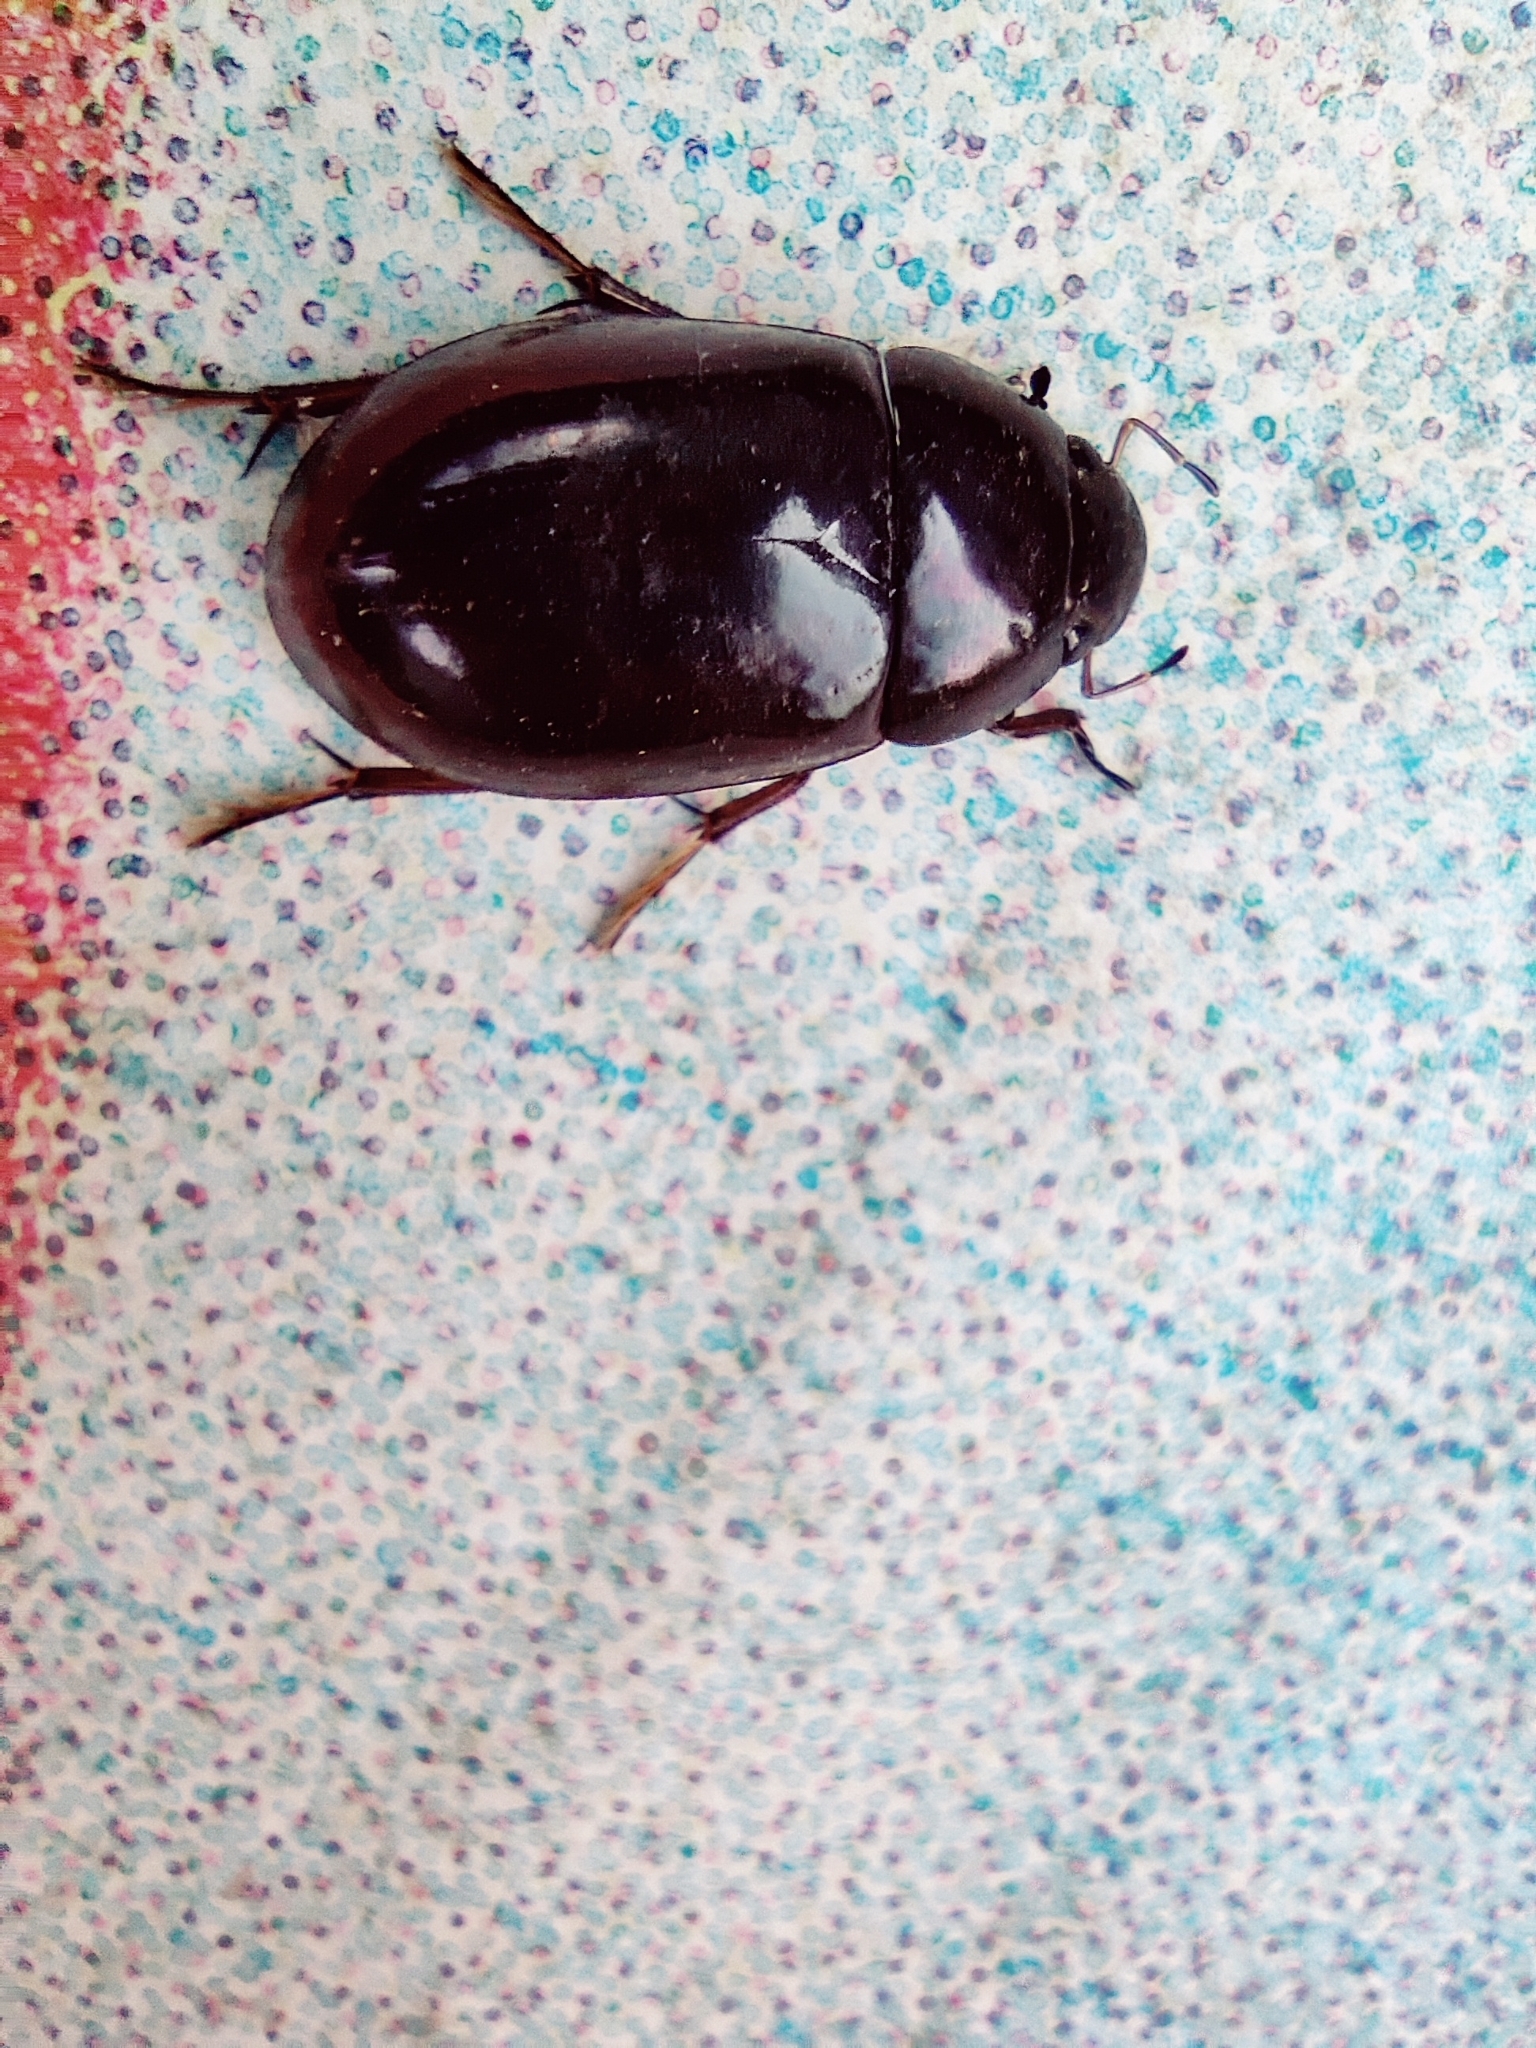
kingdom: Animalia
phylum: Arthropoda
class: Insecta
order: Coleoptera
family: Hydrophilidae
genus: Hydrochara
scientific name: Hydrochara caraboides
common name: Lesser silver water beetle
